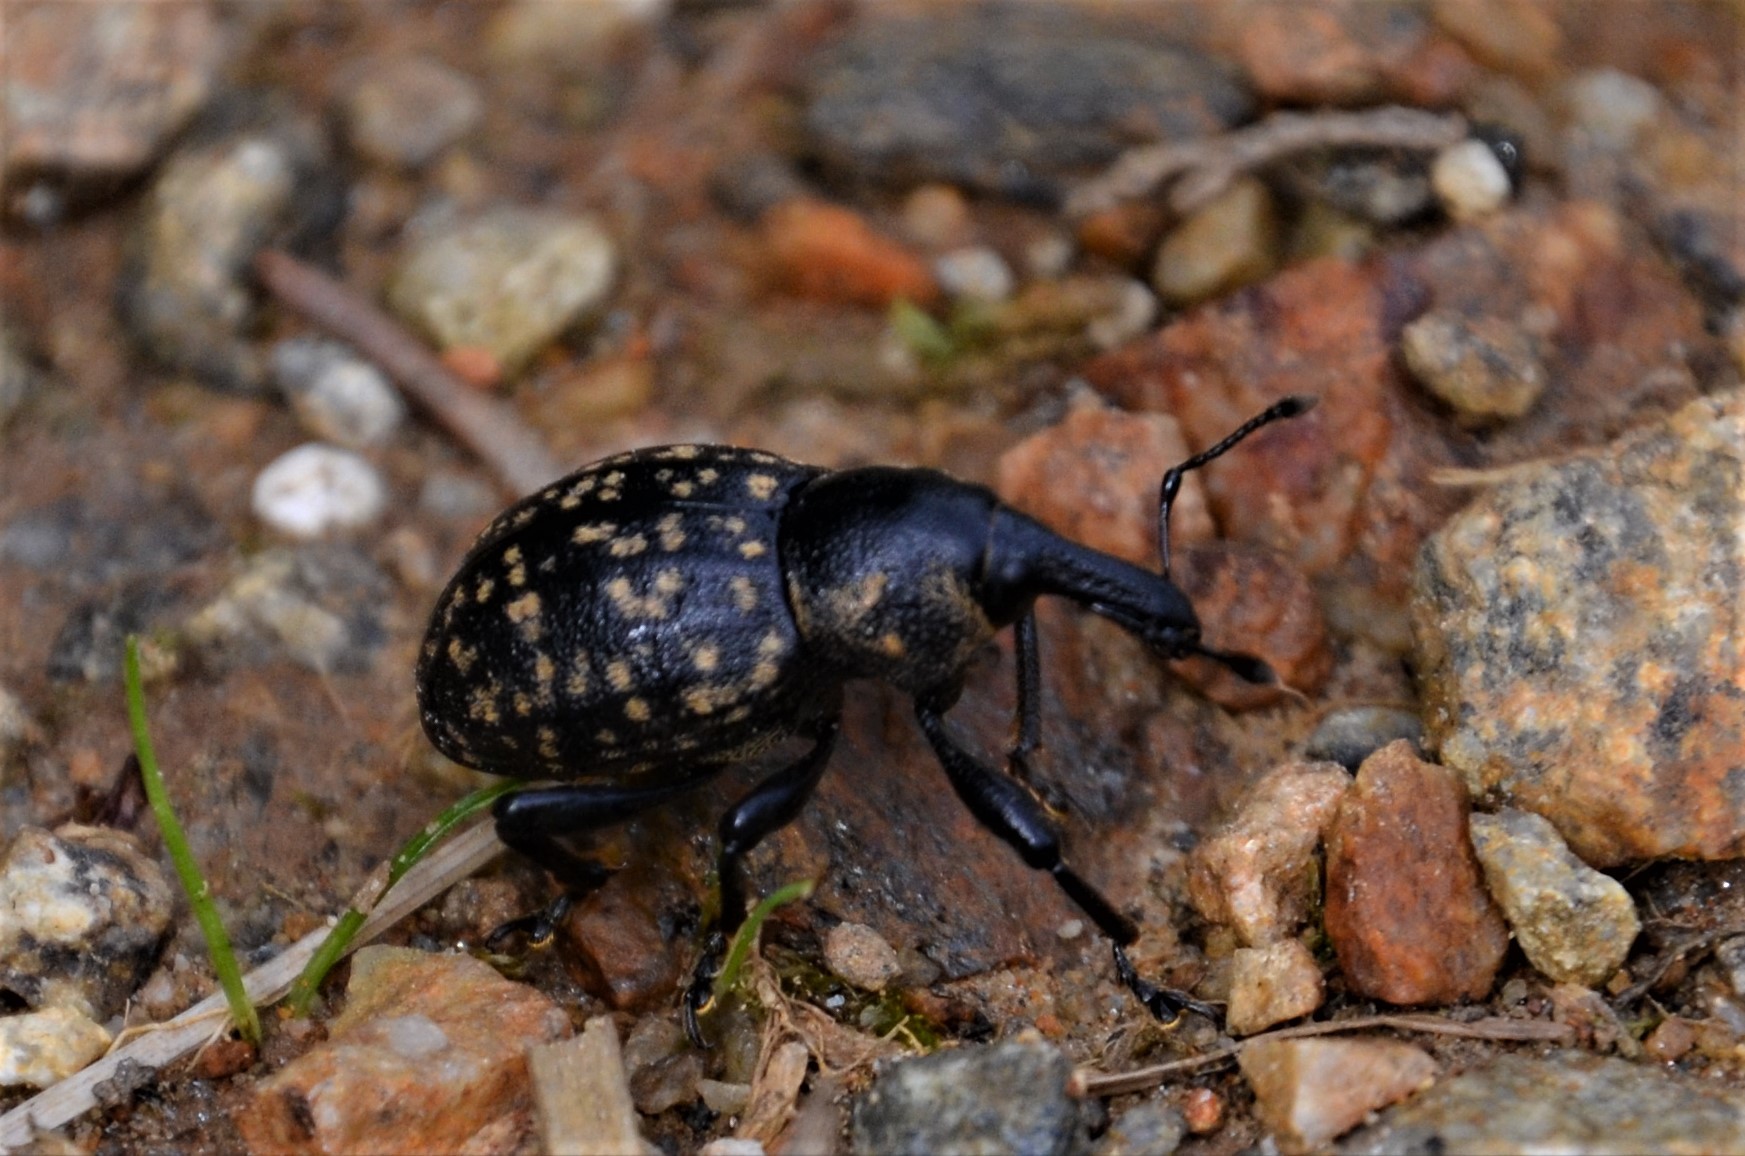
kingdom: Animalia
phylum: Arthropoda
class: Insecta
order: Coleoptera
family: Curculionidae
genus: Liparus
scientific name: Liparus germanus
